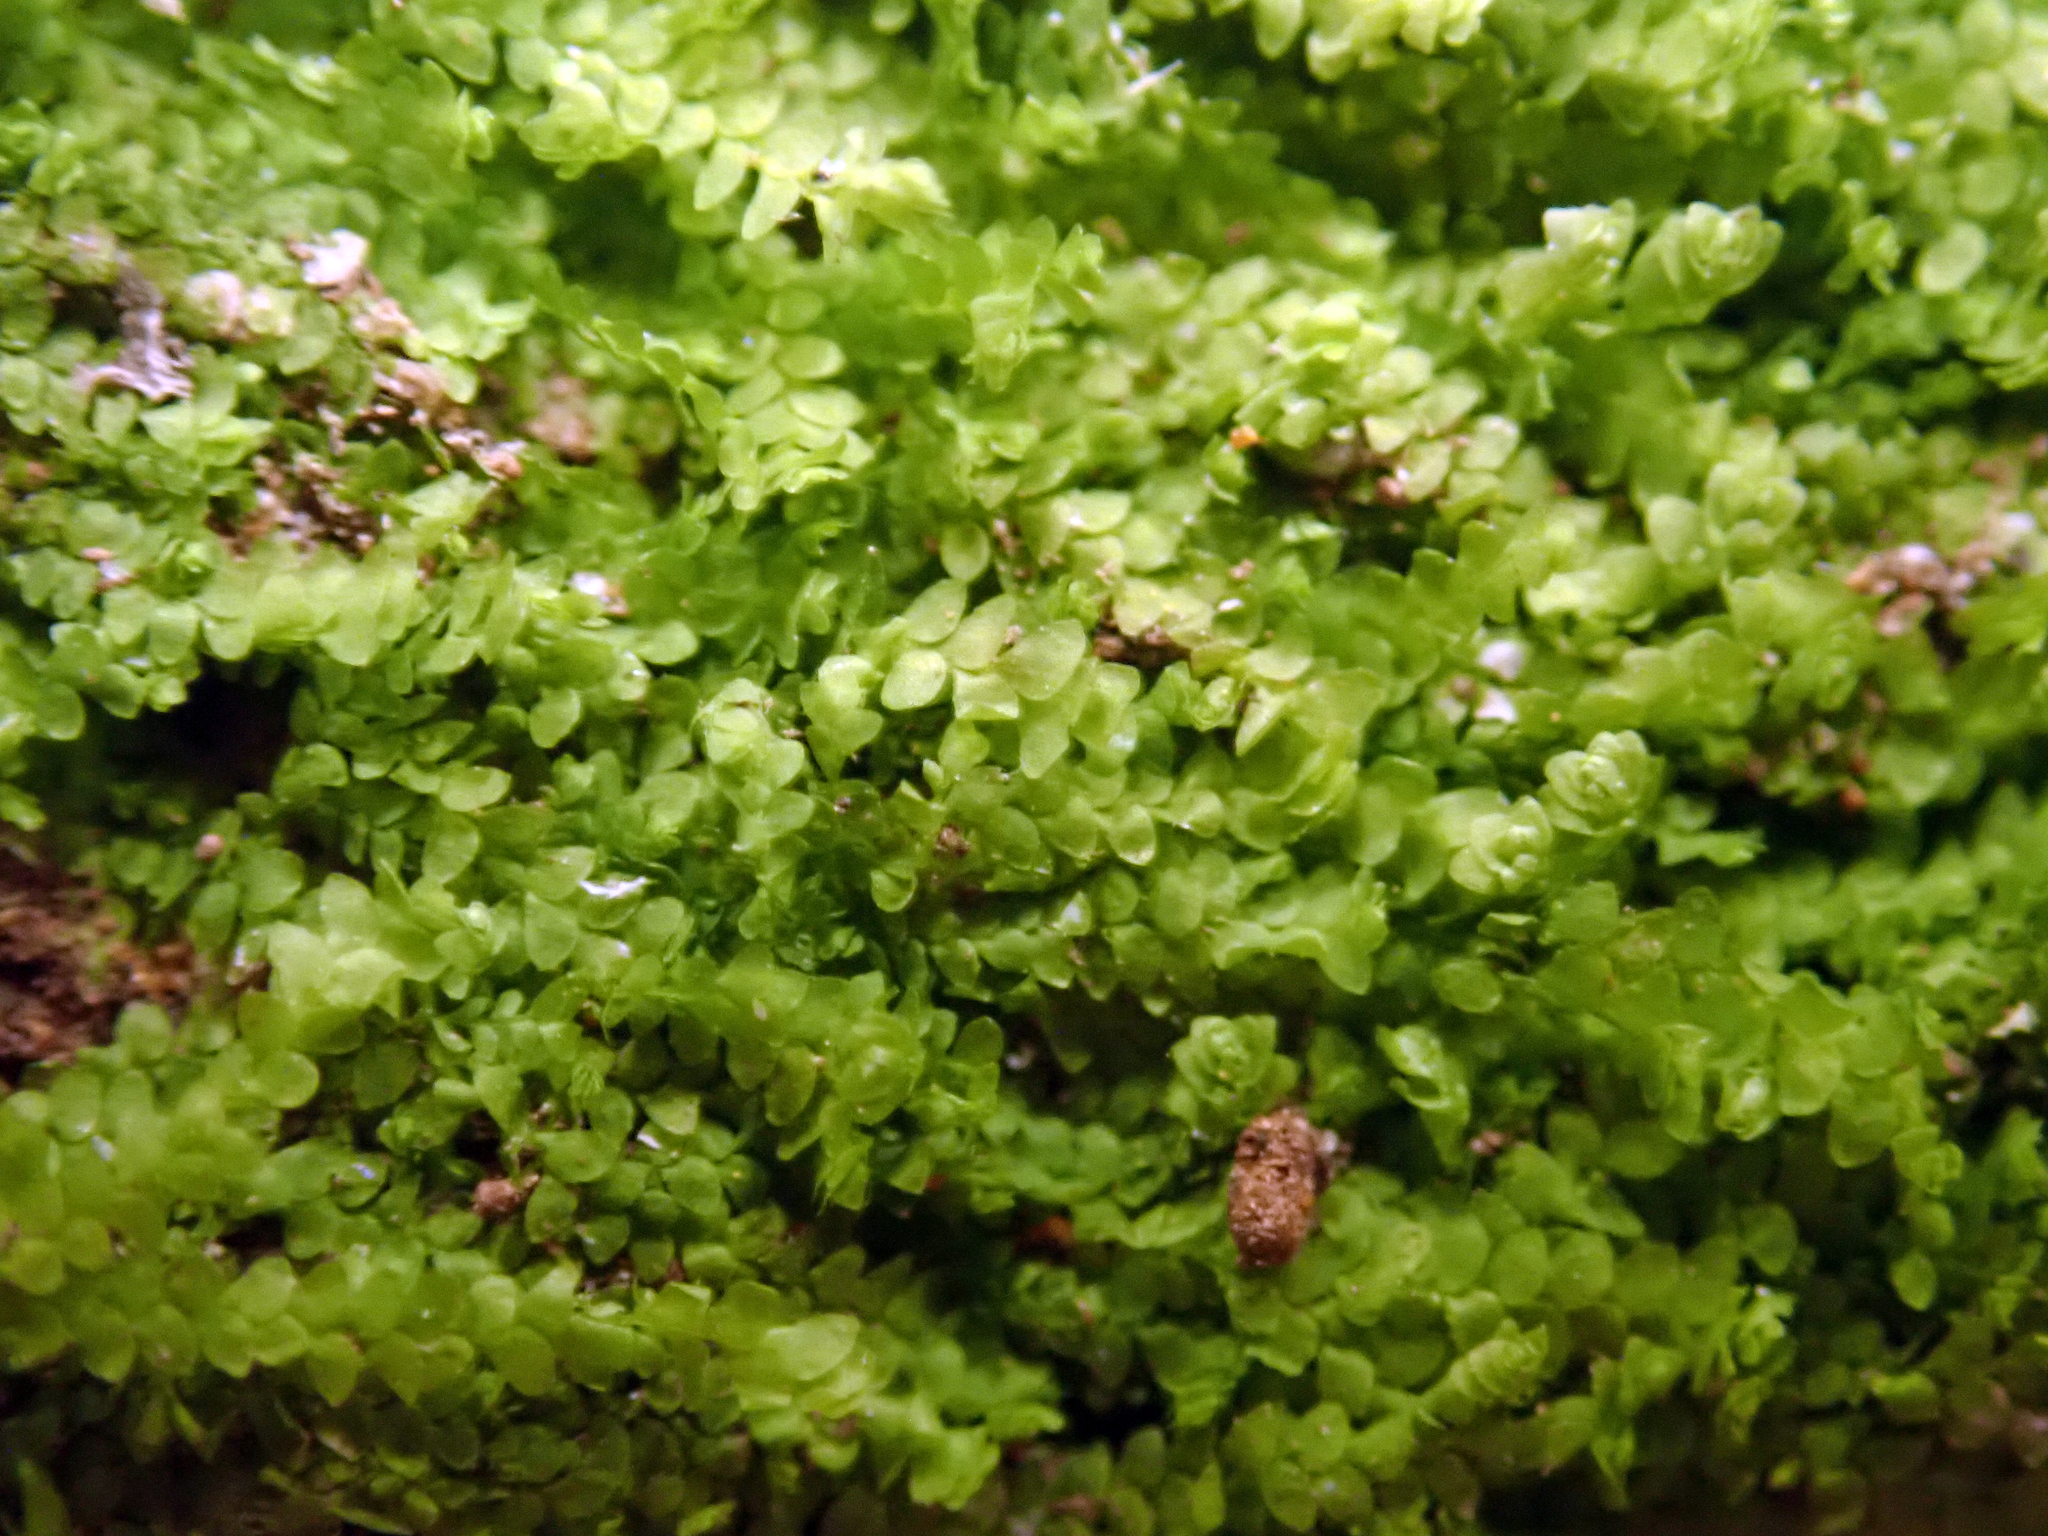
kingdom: Plantae
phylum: Marchantiophyta
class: Jungermanniopsida
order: Porellales
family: Lejeuneaceae
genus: Lejeunea
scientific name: Lejeunea gracilipes
